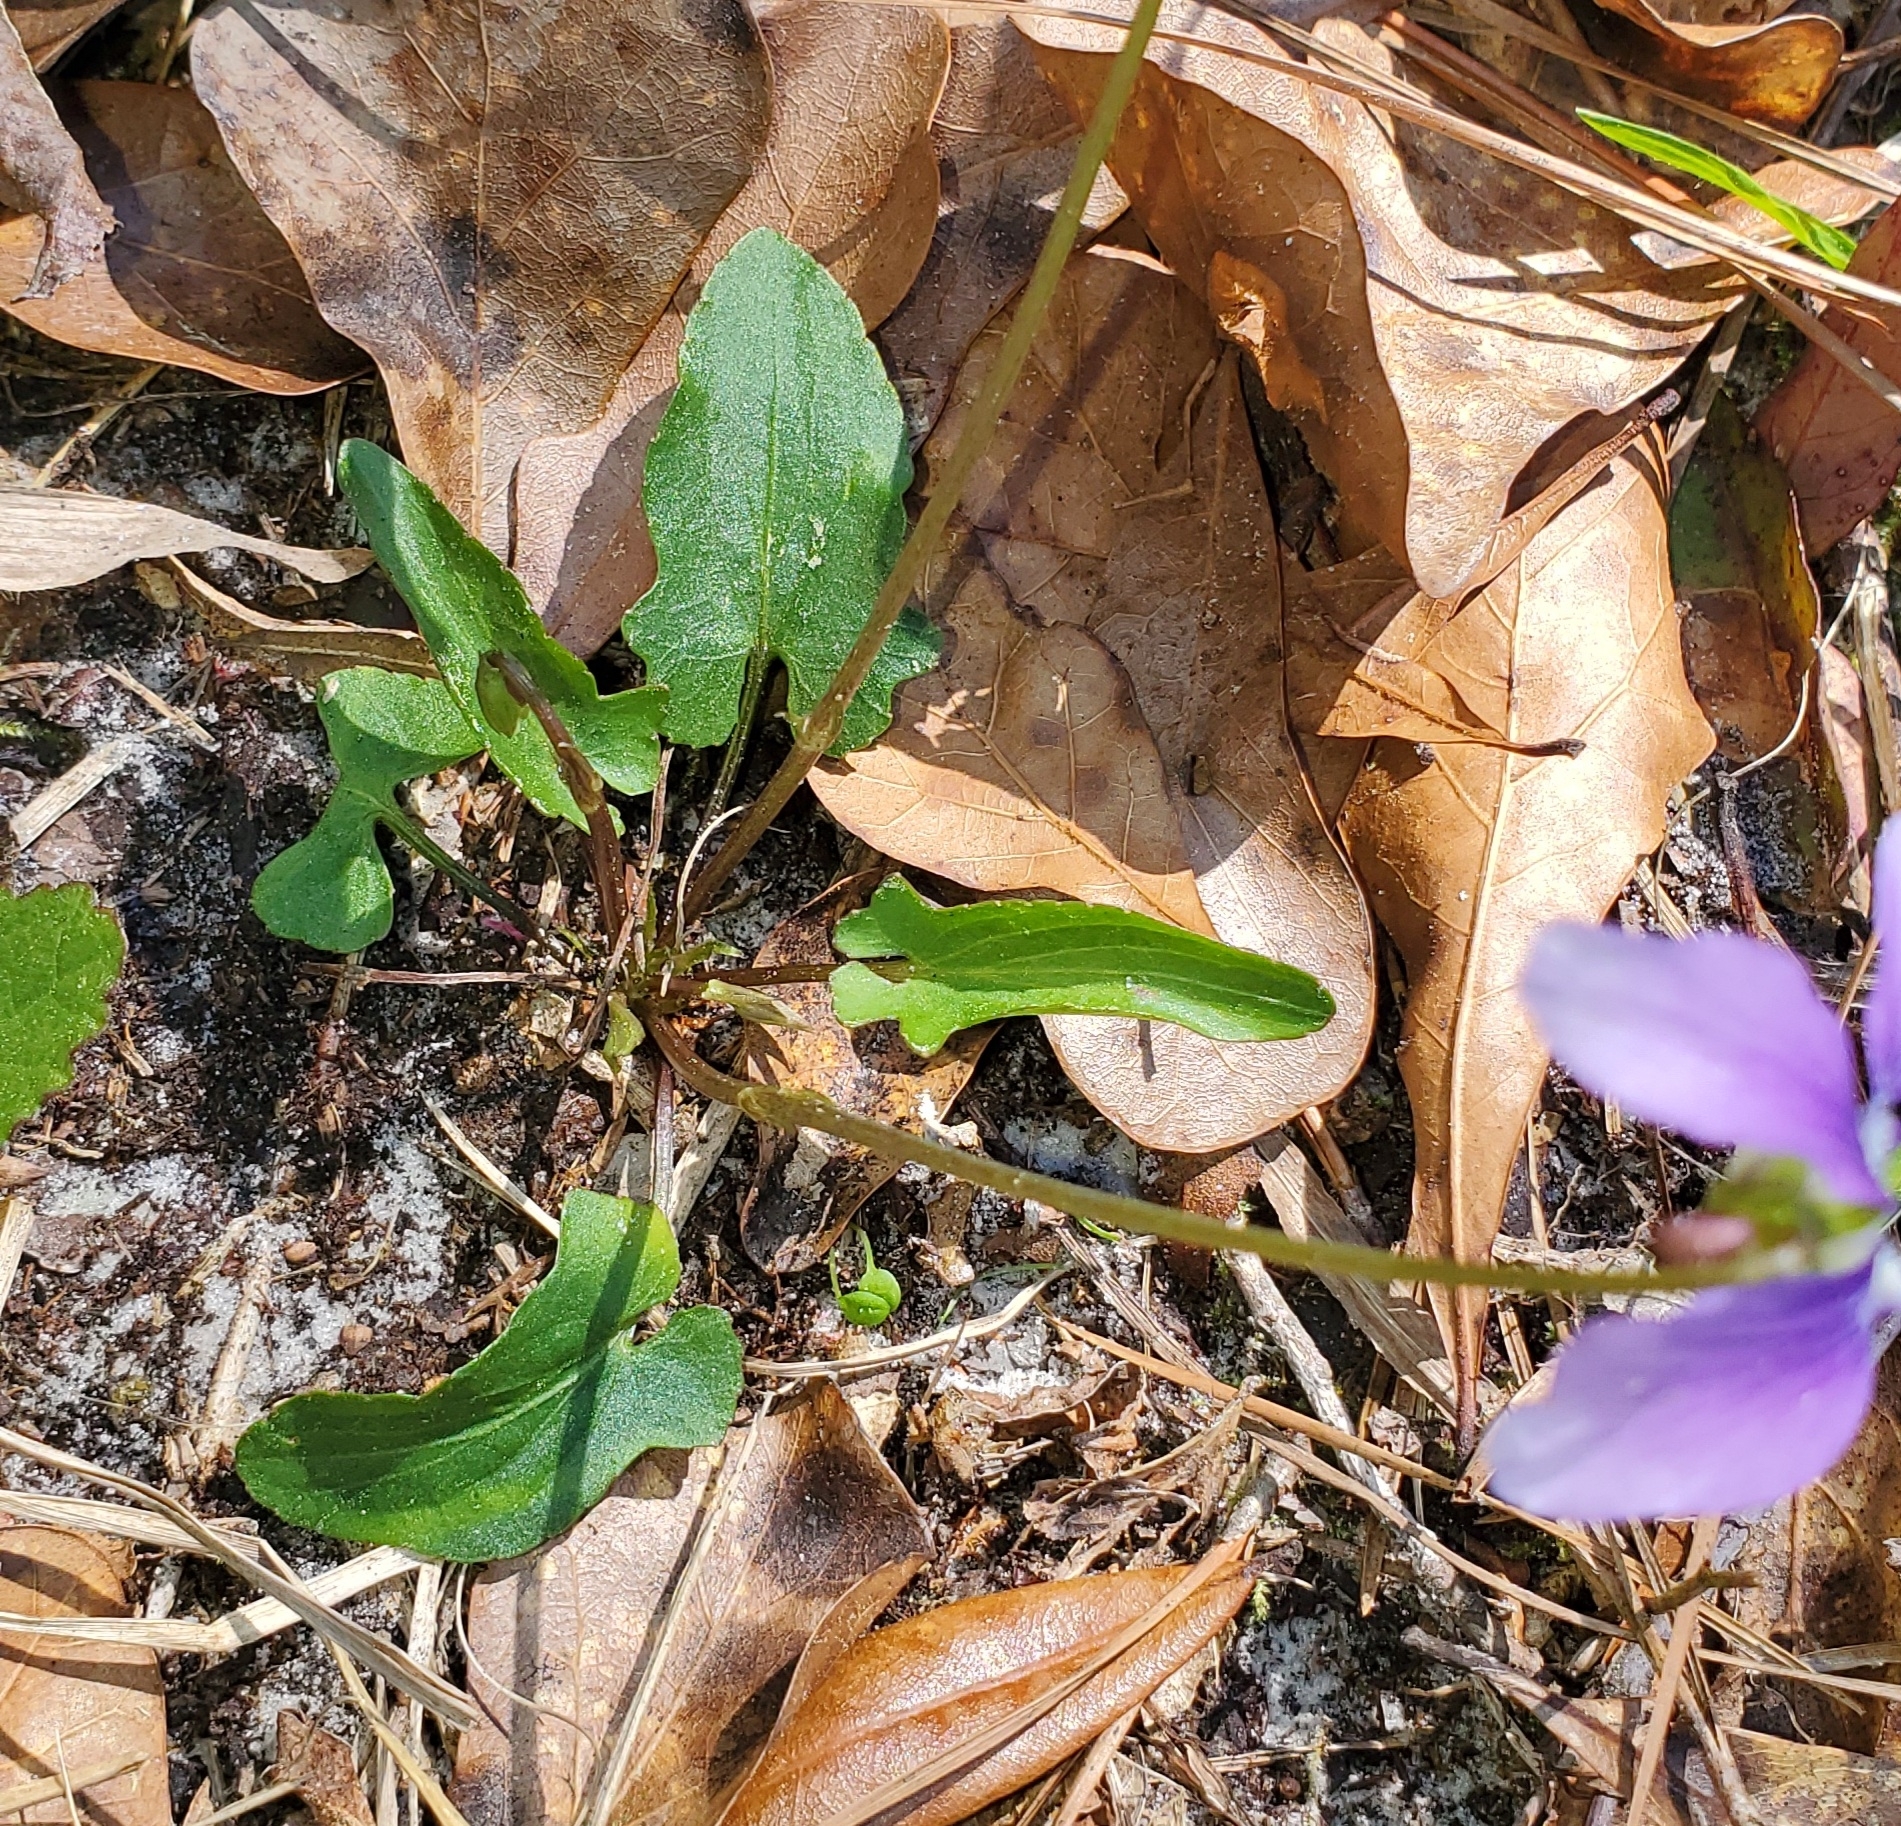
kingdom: Plantae
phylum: Tracheophyta
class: Magnoliopsida
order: Malpighiales
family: Violaceae
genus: Viola
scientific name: Viola palmata
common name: Early blue violet
